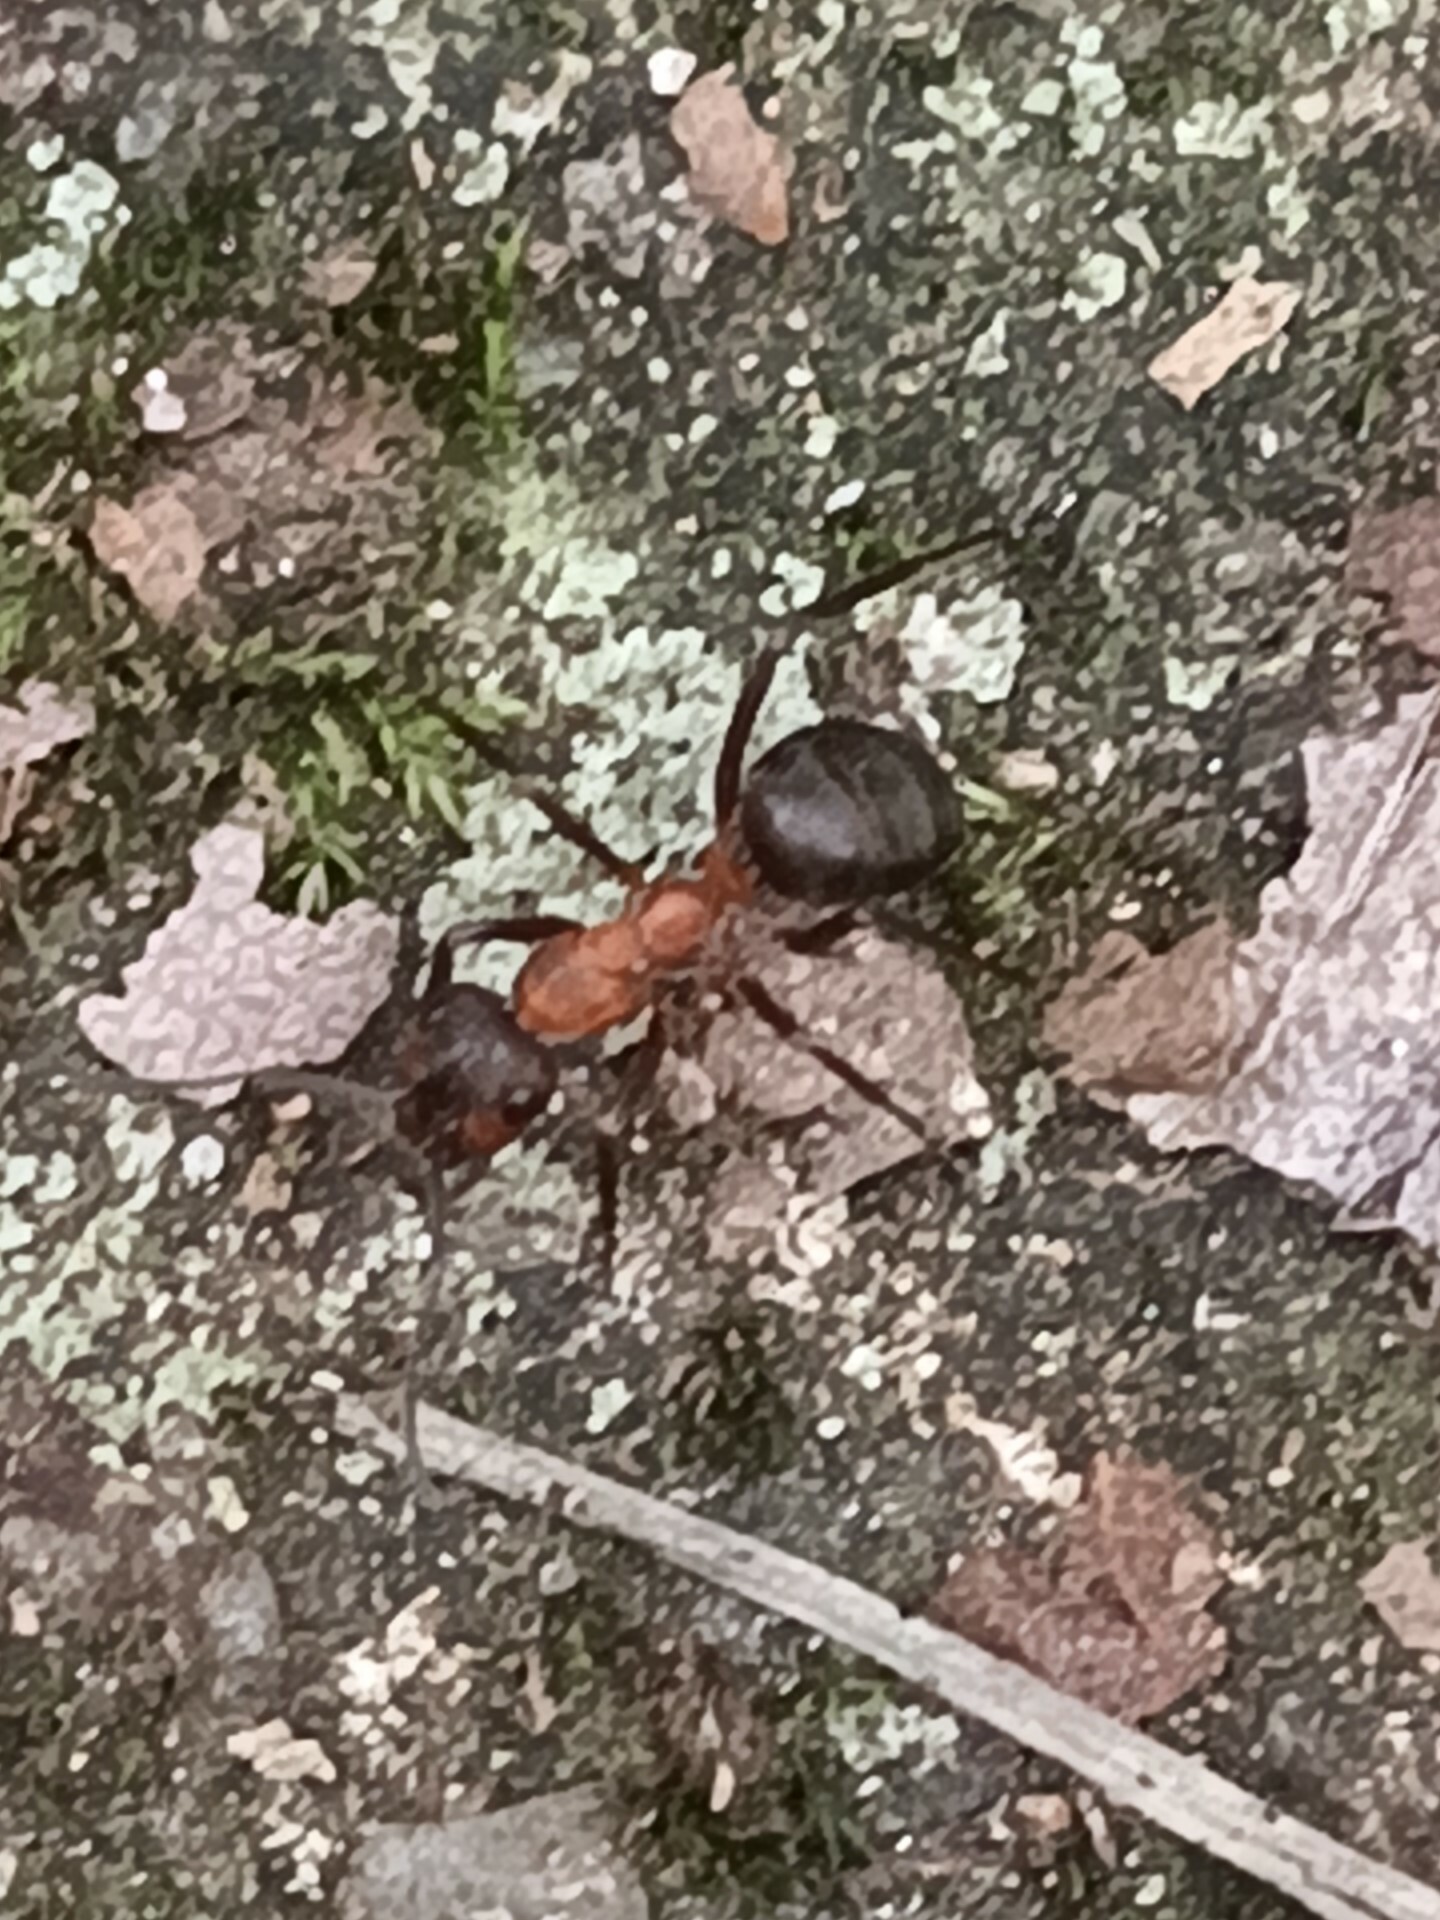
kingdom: Animalia
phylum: Arthropoda
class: Insecta
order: Hymenoptera
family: Formicidae
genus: Formica
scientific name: Formica
